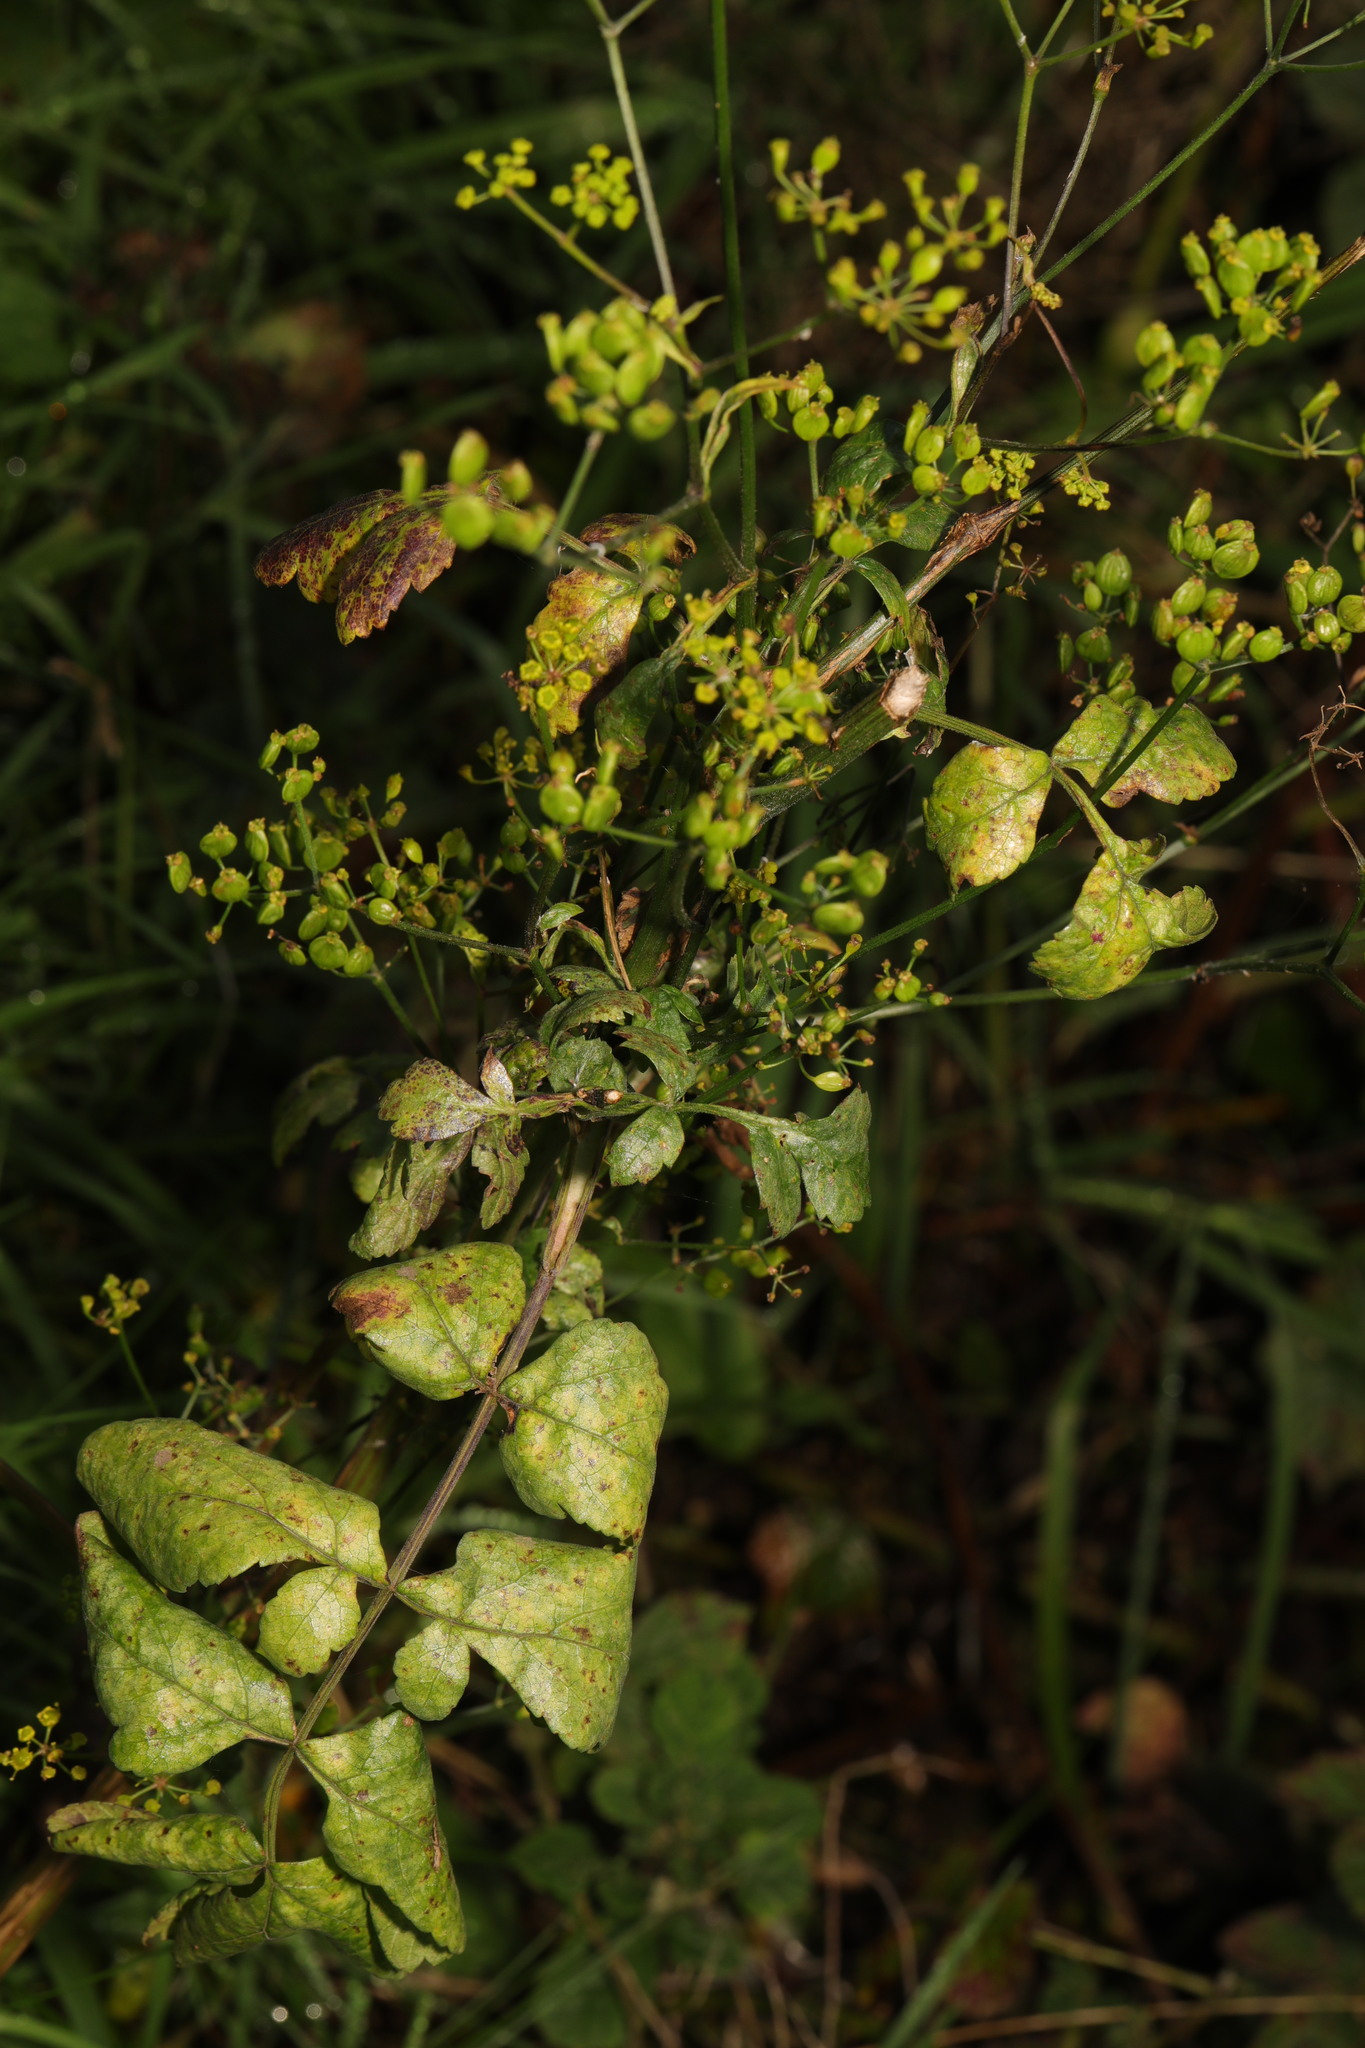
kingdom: Plantae
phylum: Tracheophyta
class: Magnoliopsida
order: Apiales
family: Apiaceae
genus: Pastinaca
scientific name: Pastinaca sativa
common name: Wild parsnip
